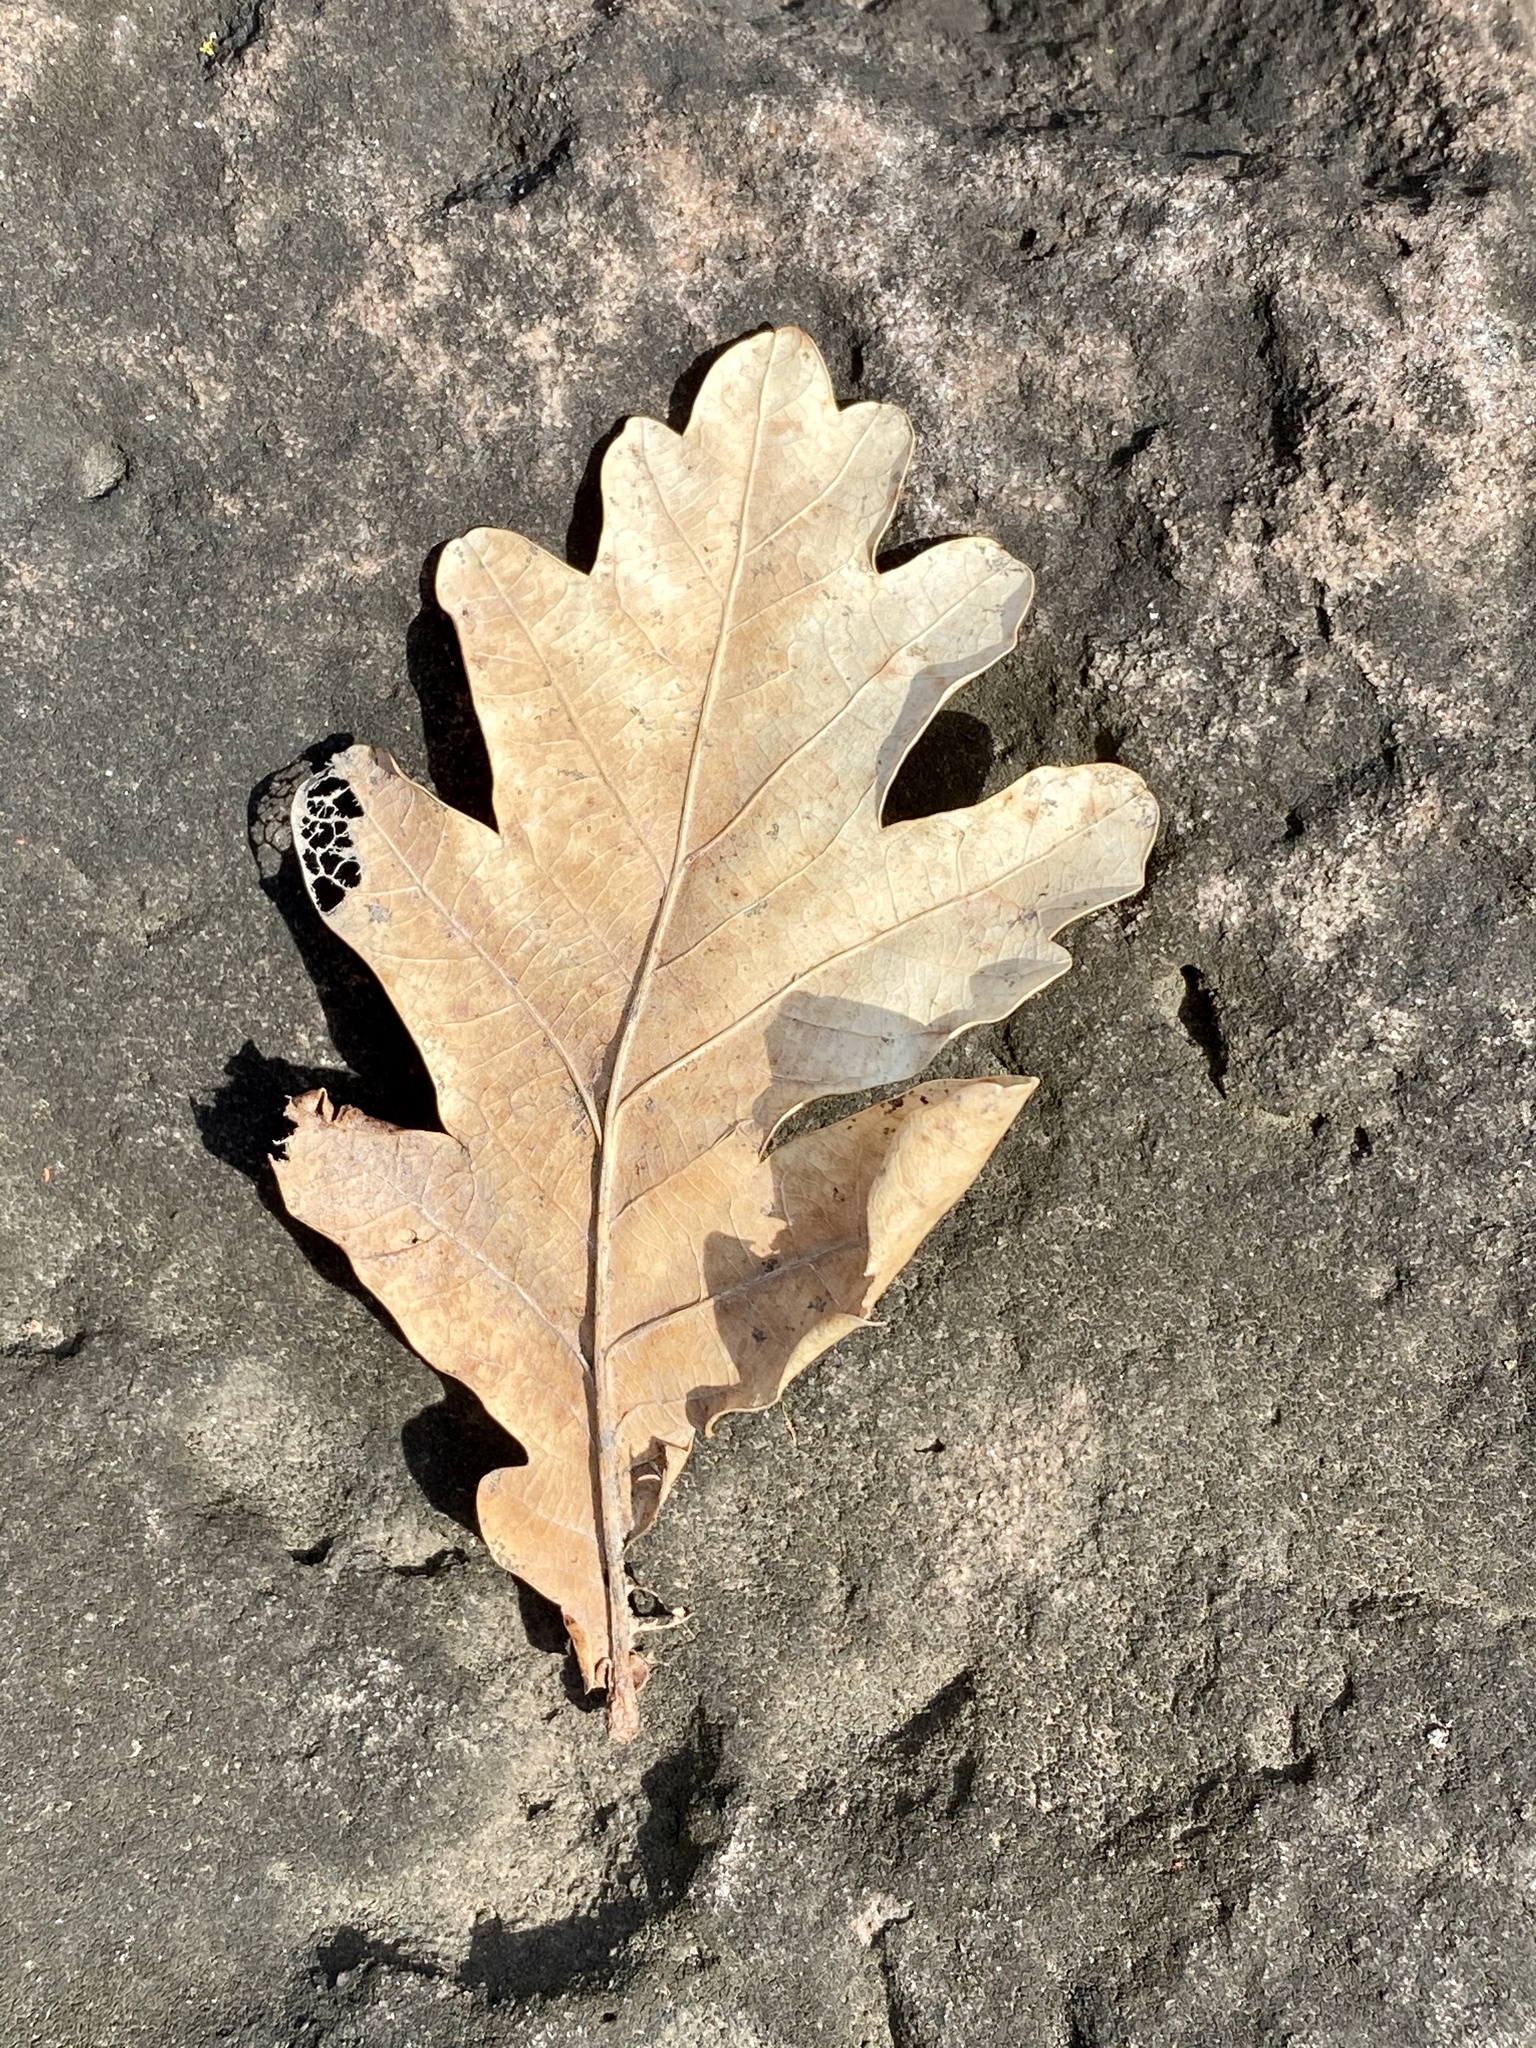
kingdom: Plantae
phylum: Tracheophyta
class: Magnoliopsida
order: Fagales
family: Fagaceae
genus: Quercus
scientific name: Quercus alba
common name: White oak
